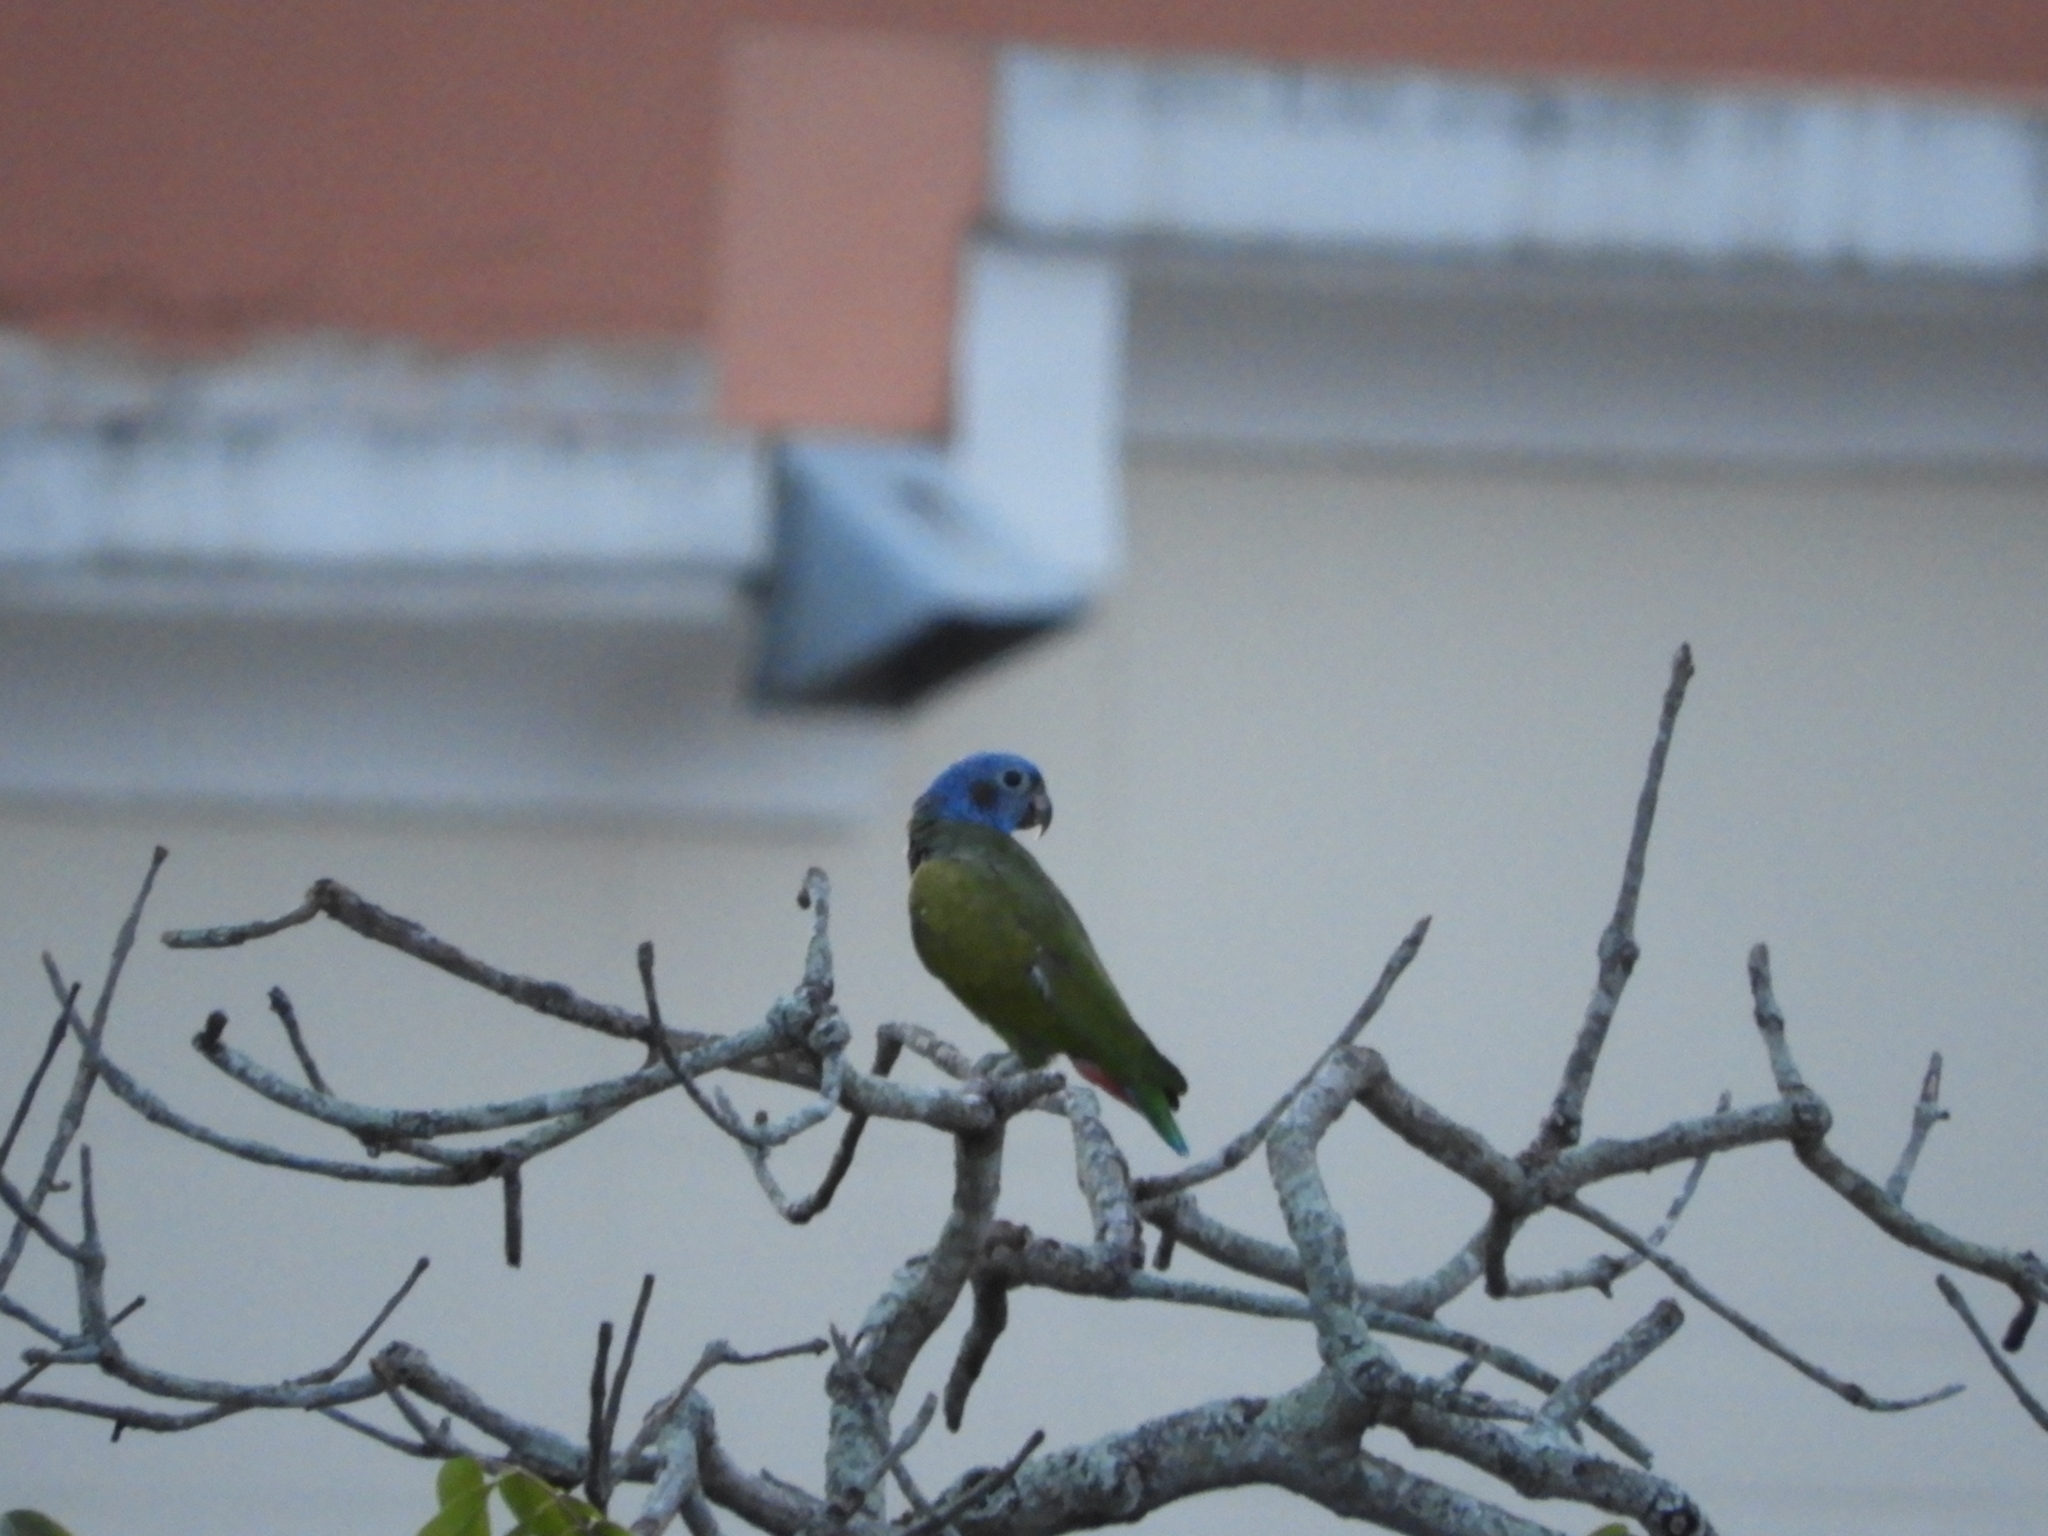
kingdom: Animalia
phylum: Chordata
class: Aves
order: Psittaciformes
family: Psittacidae
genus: Pionus
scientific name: Pionus menstruus
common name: Blue-headed parrot
